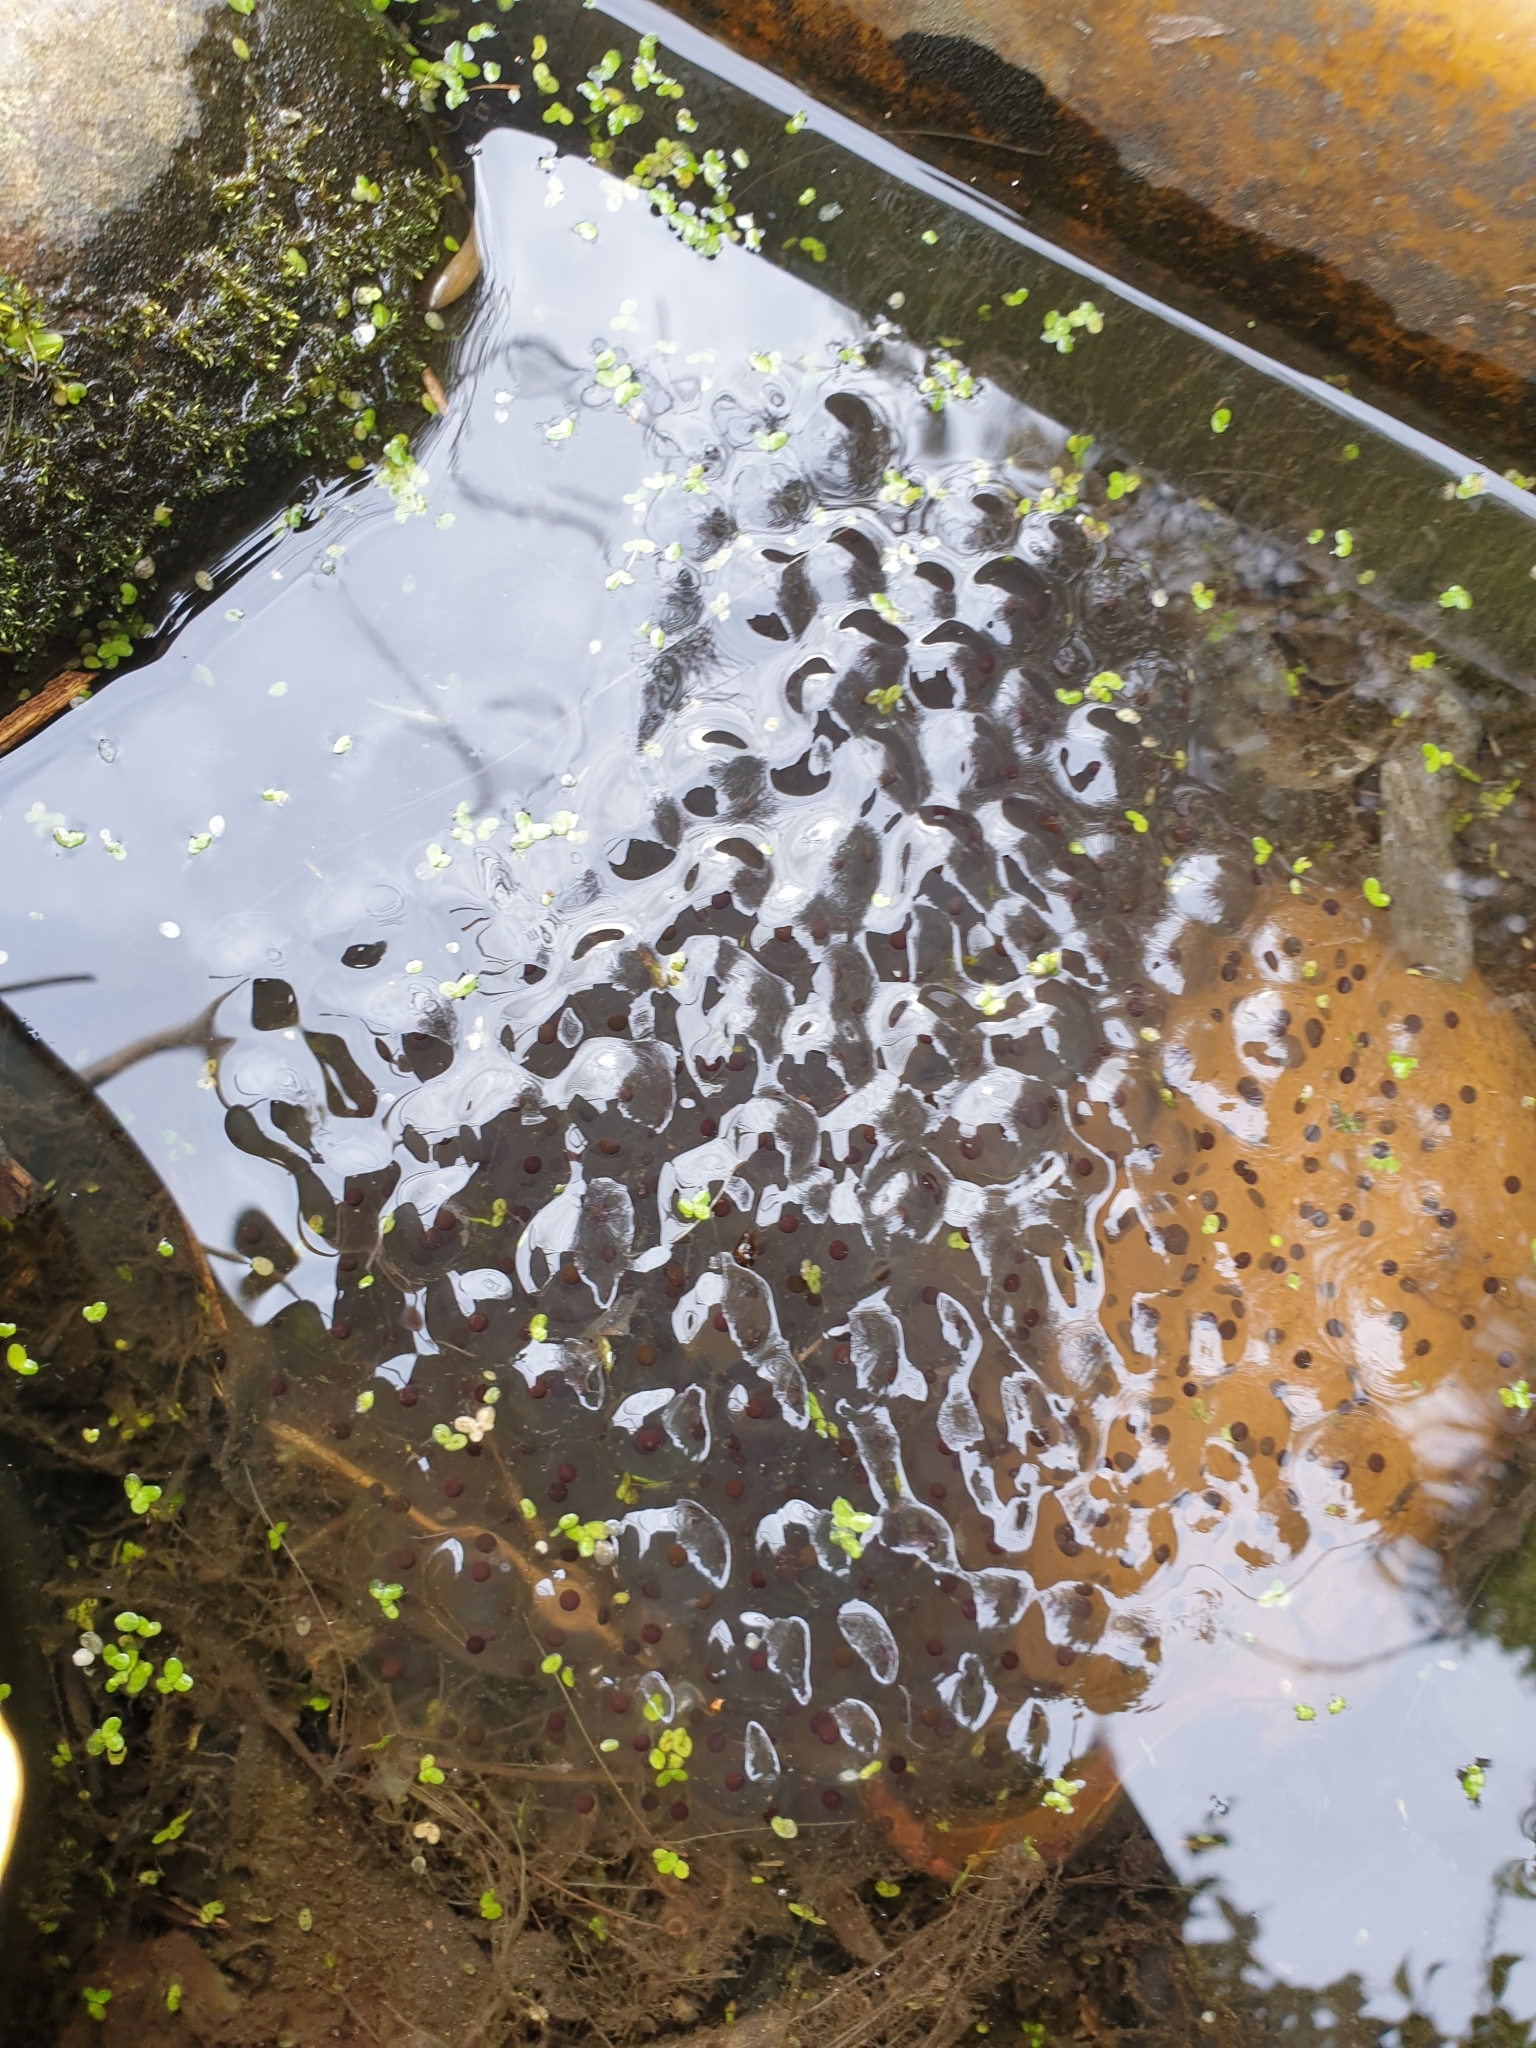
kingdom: Animalia
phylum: Chordata
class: Amphibia
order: Anura
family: Ranidae
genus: Rana
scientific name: Rana temporaria
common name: Common frog
